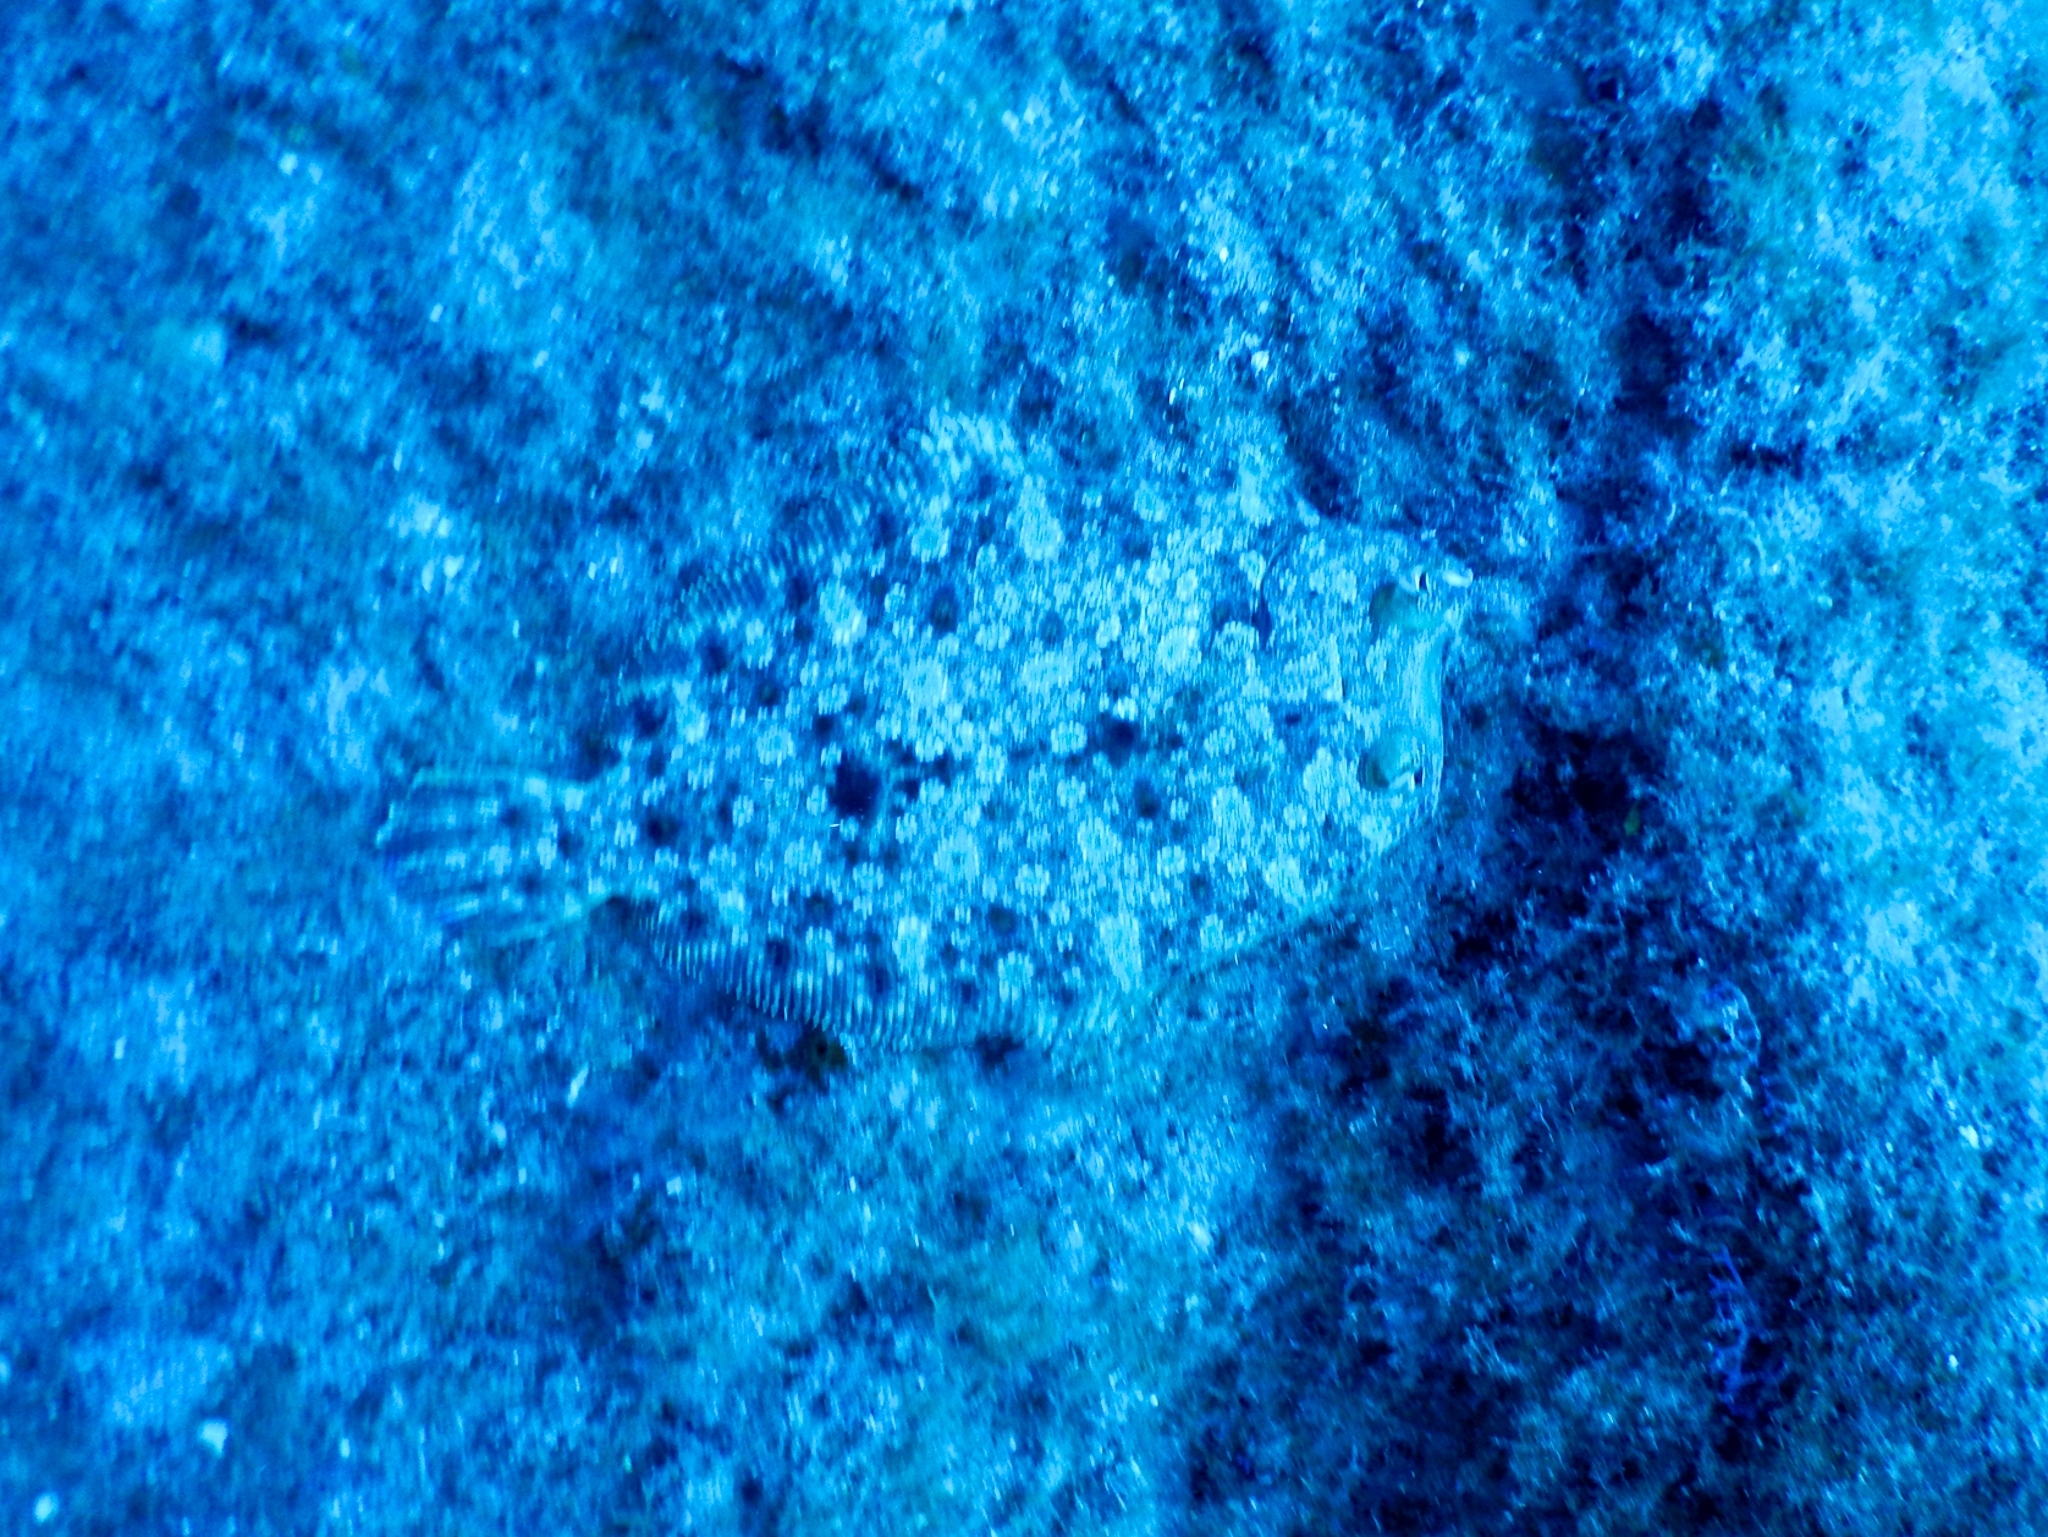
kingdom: Animalia
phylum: Chordata
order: Pleuronectiformes
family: Bothidae
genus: Bothus
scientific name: Bothus podas
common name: Wide-eyed flounder
